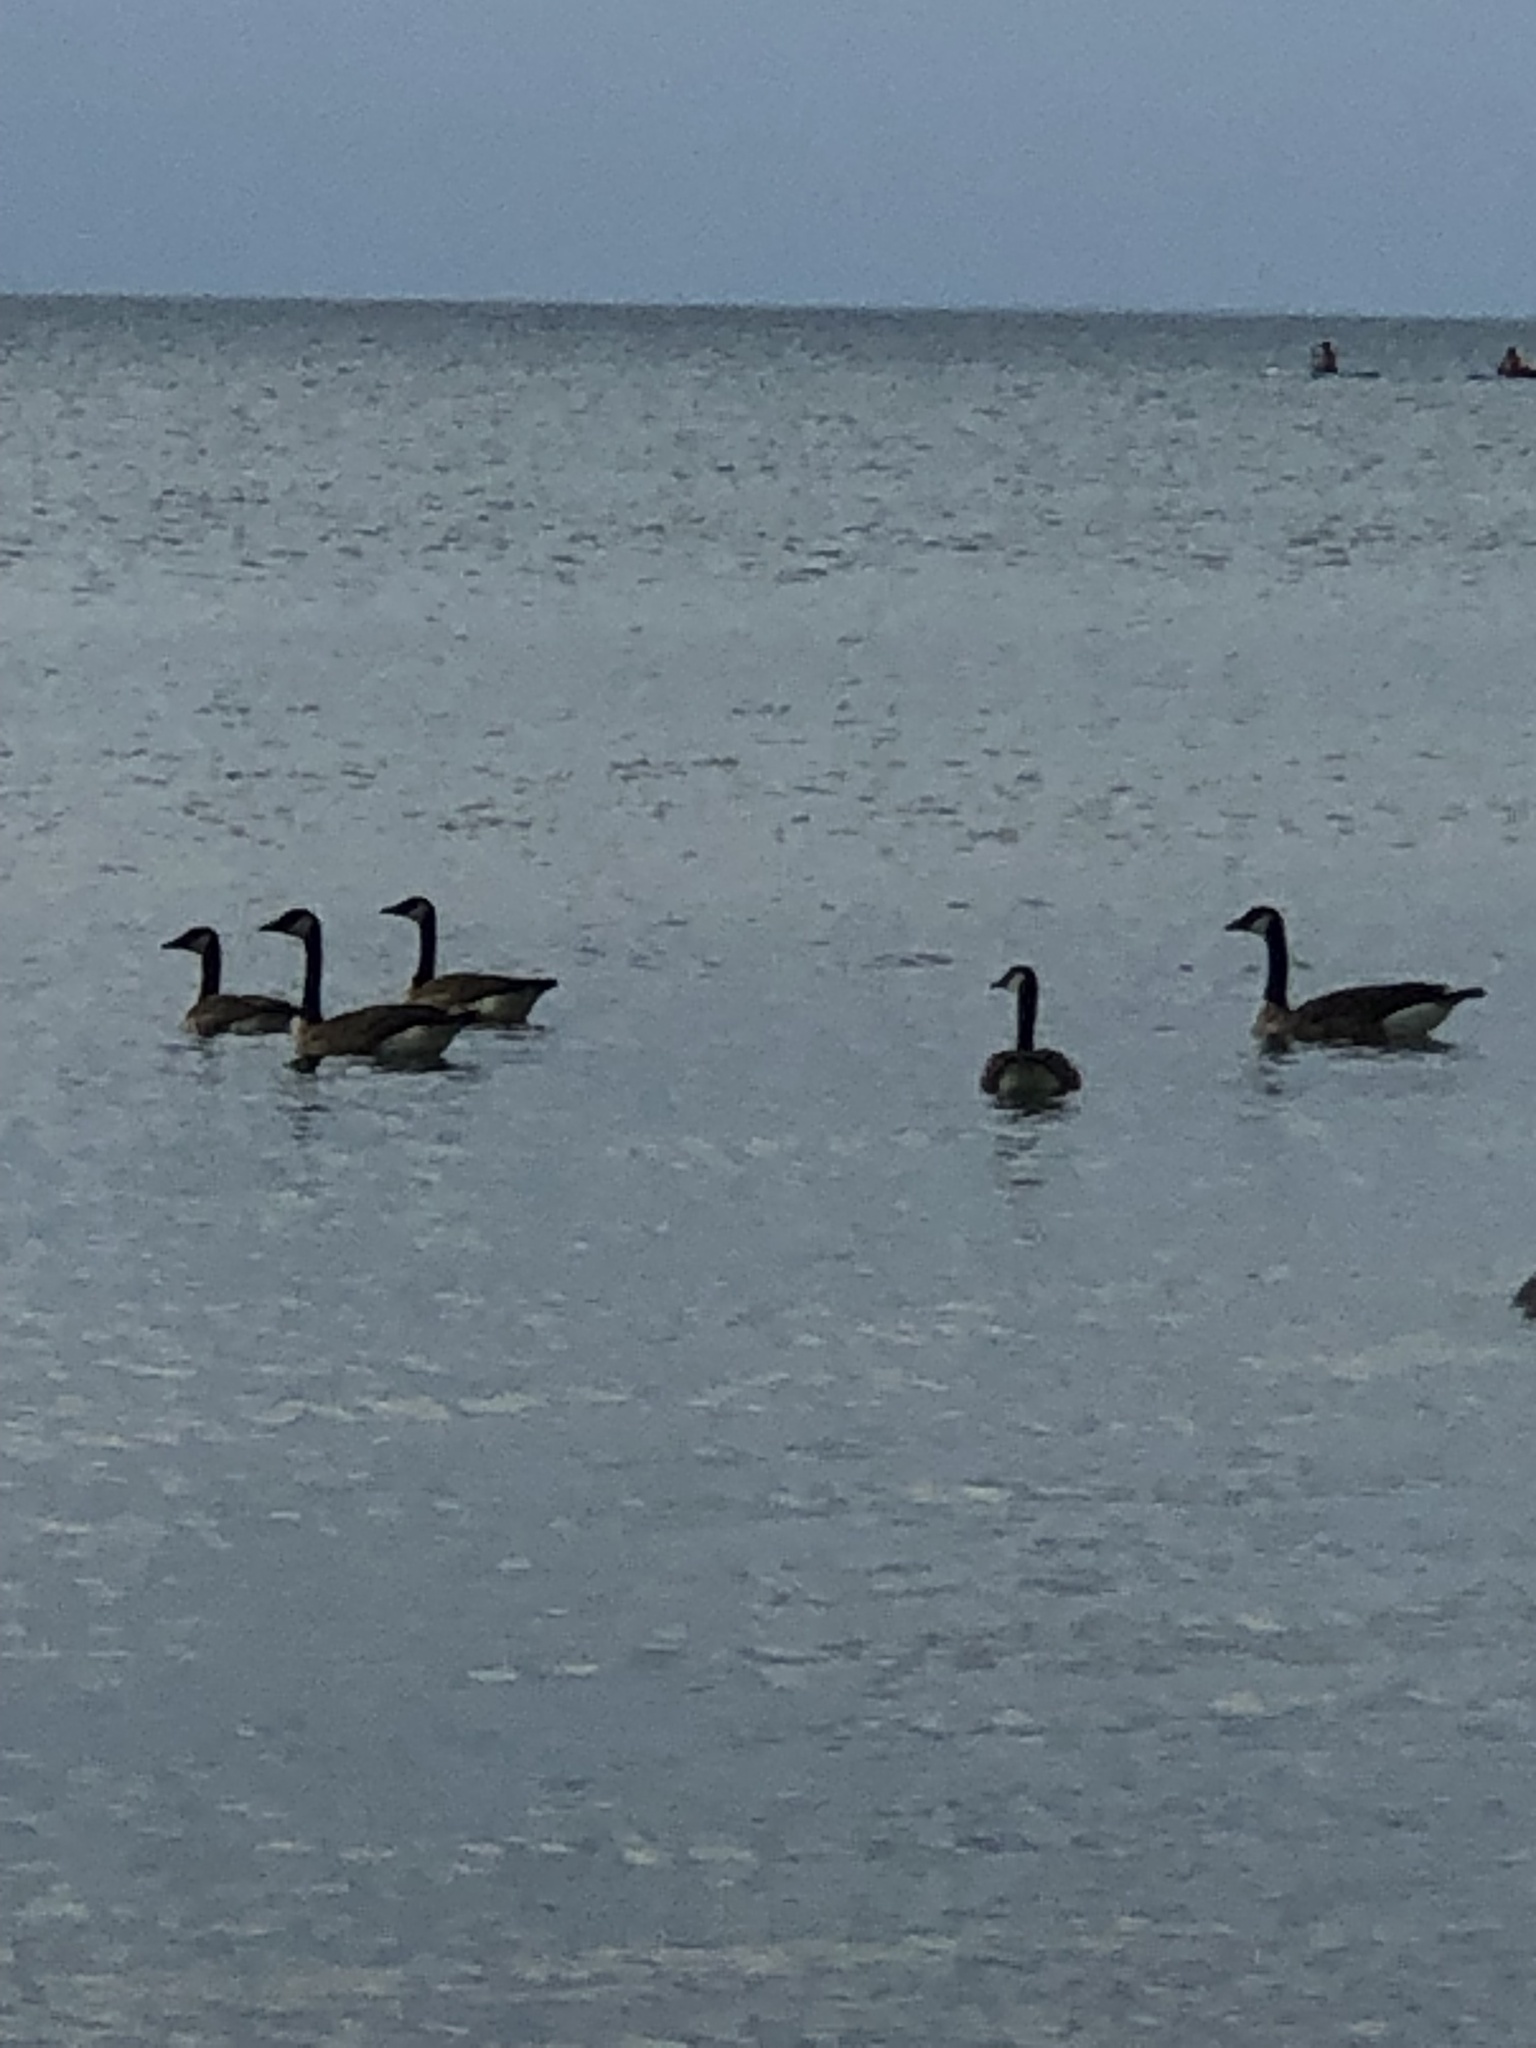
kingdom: Animalia
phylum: Chordata
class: Aves
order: Anseriformes
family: Anatidae
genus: Branta
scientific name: Branta canadensis
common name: Canada goose
